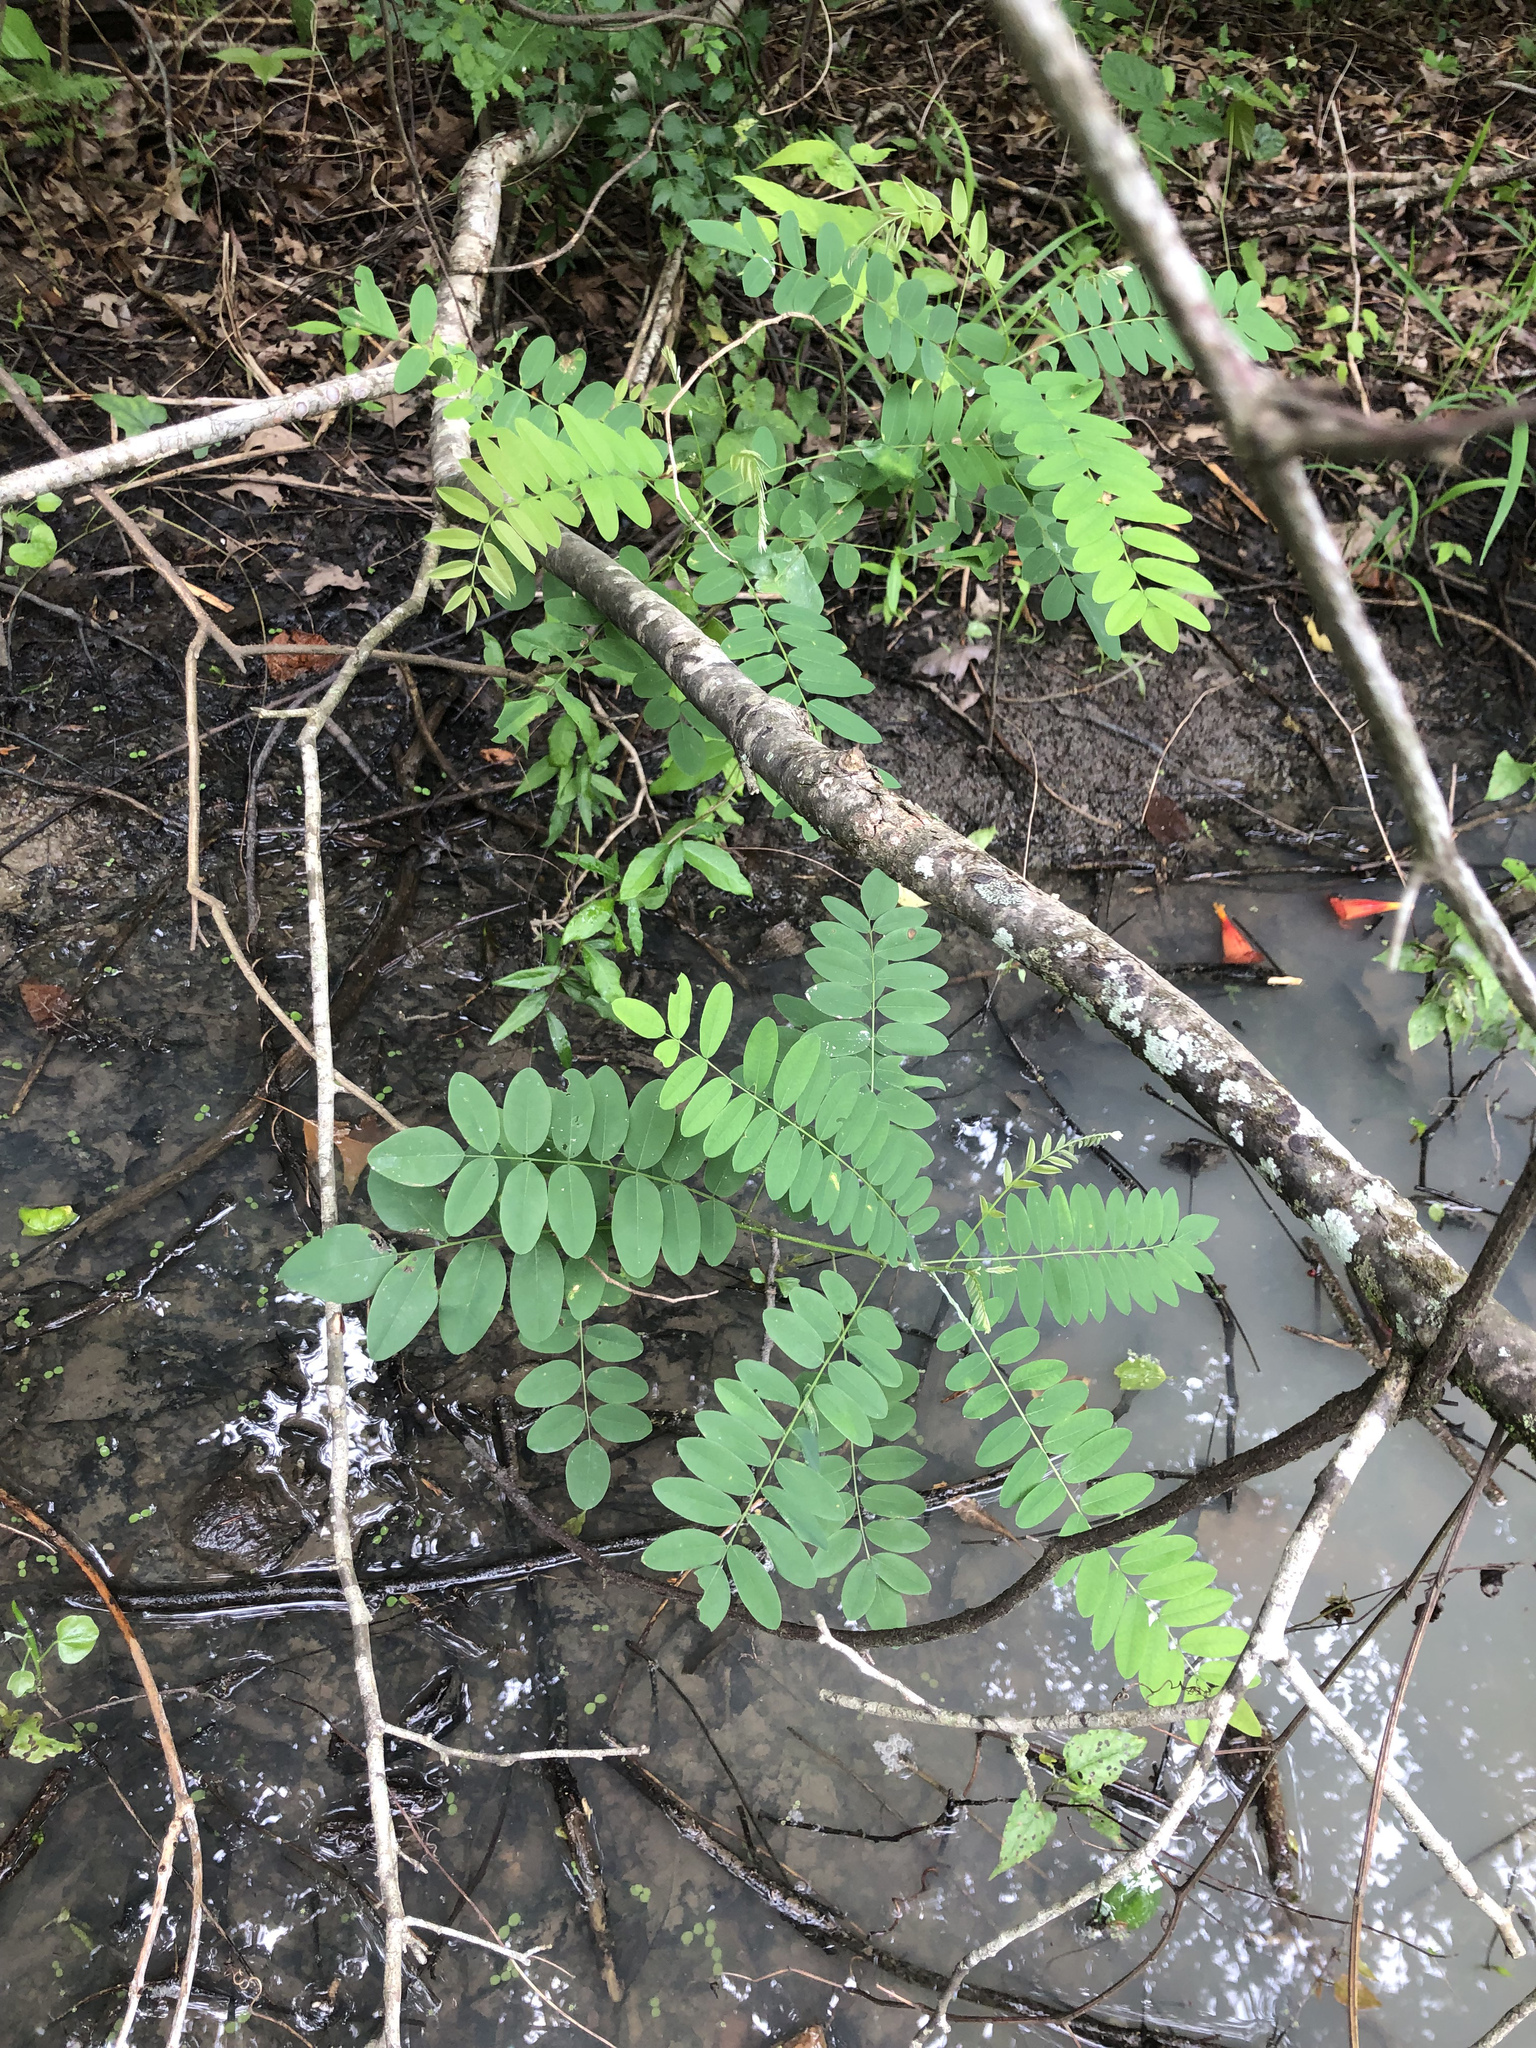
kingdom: Plantae
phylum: Tracheophyta
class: Magnoliopsida
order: Fabales
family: Fabaceae
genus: Amorpha
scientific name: Amorpha fruticosa
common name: False indigo
